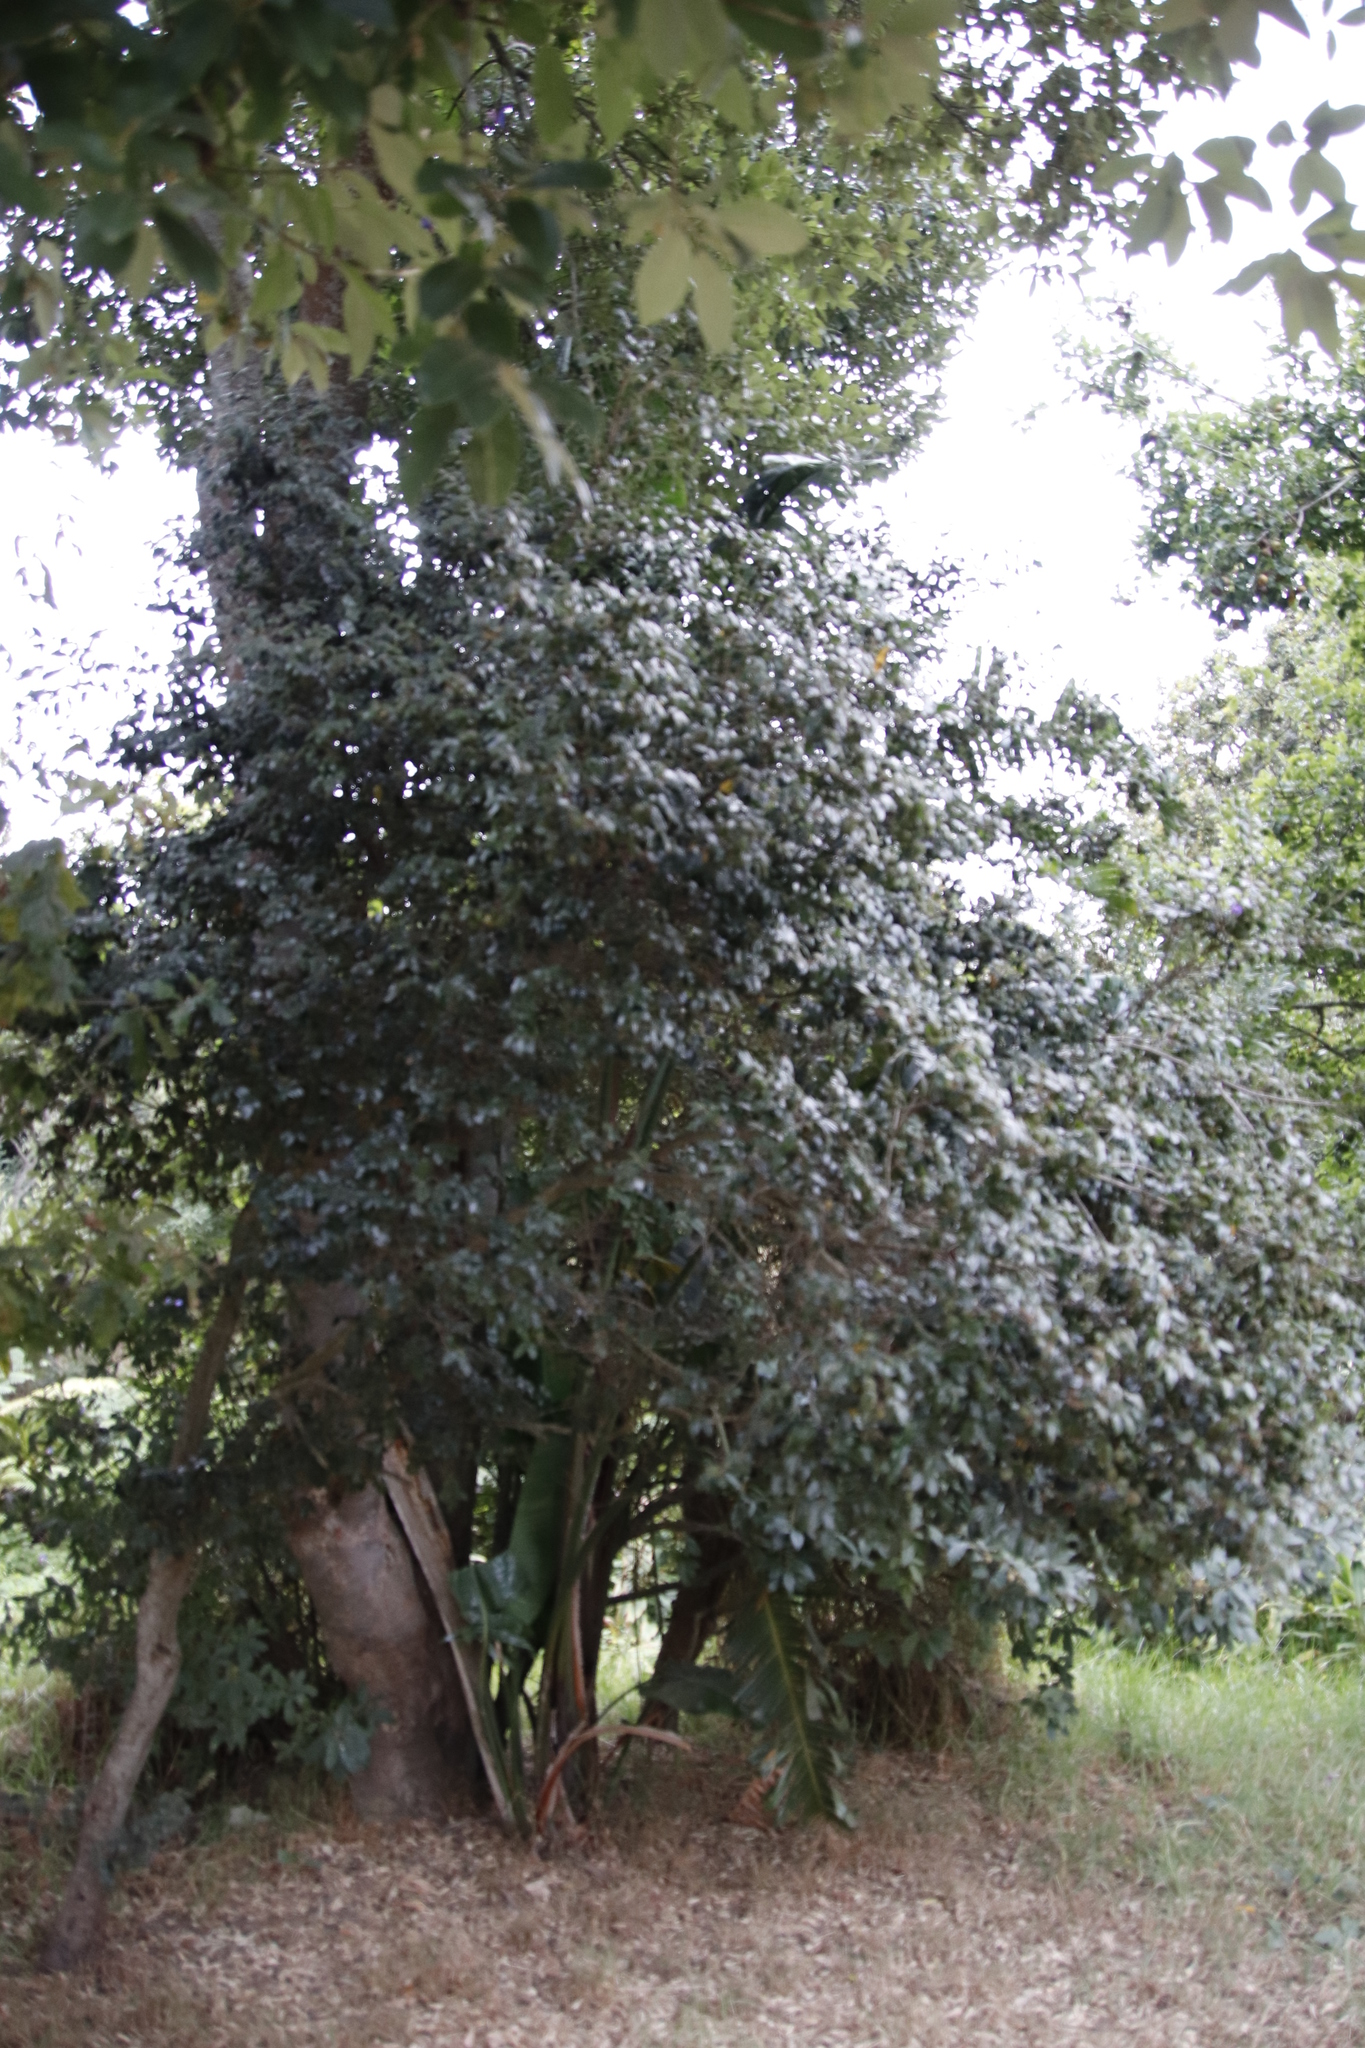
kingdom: Plantae
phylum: Tracheophyta
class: Magnoliopsida
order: Ericales
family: Ebenaceae
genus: Diospyros
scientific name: Diospyros whyteana
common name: Bladder-nut
